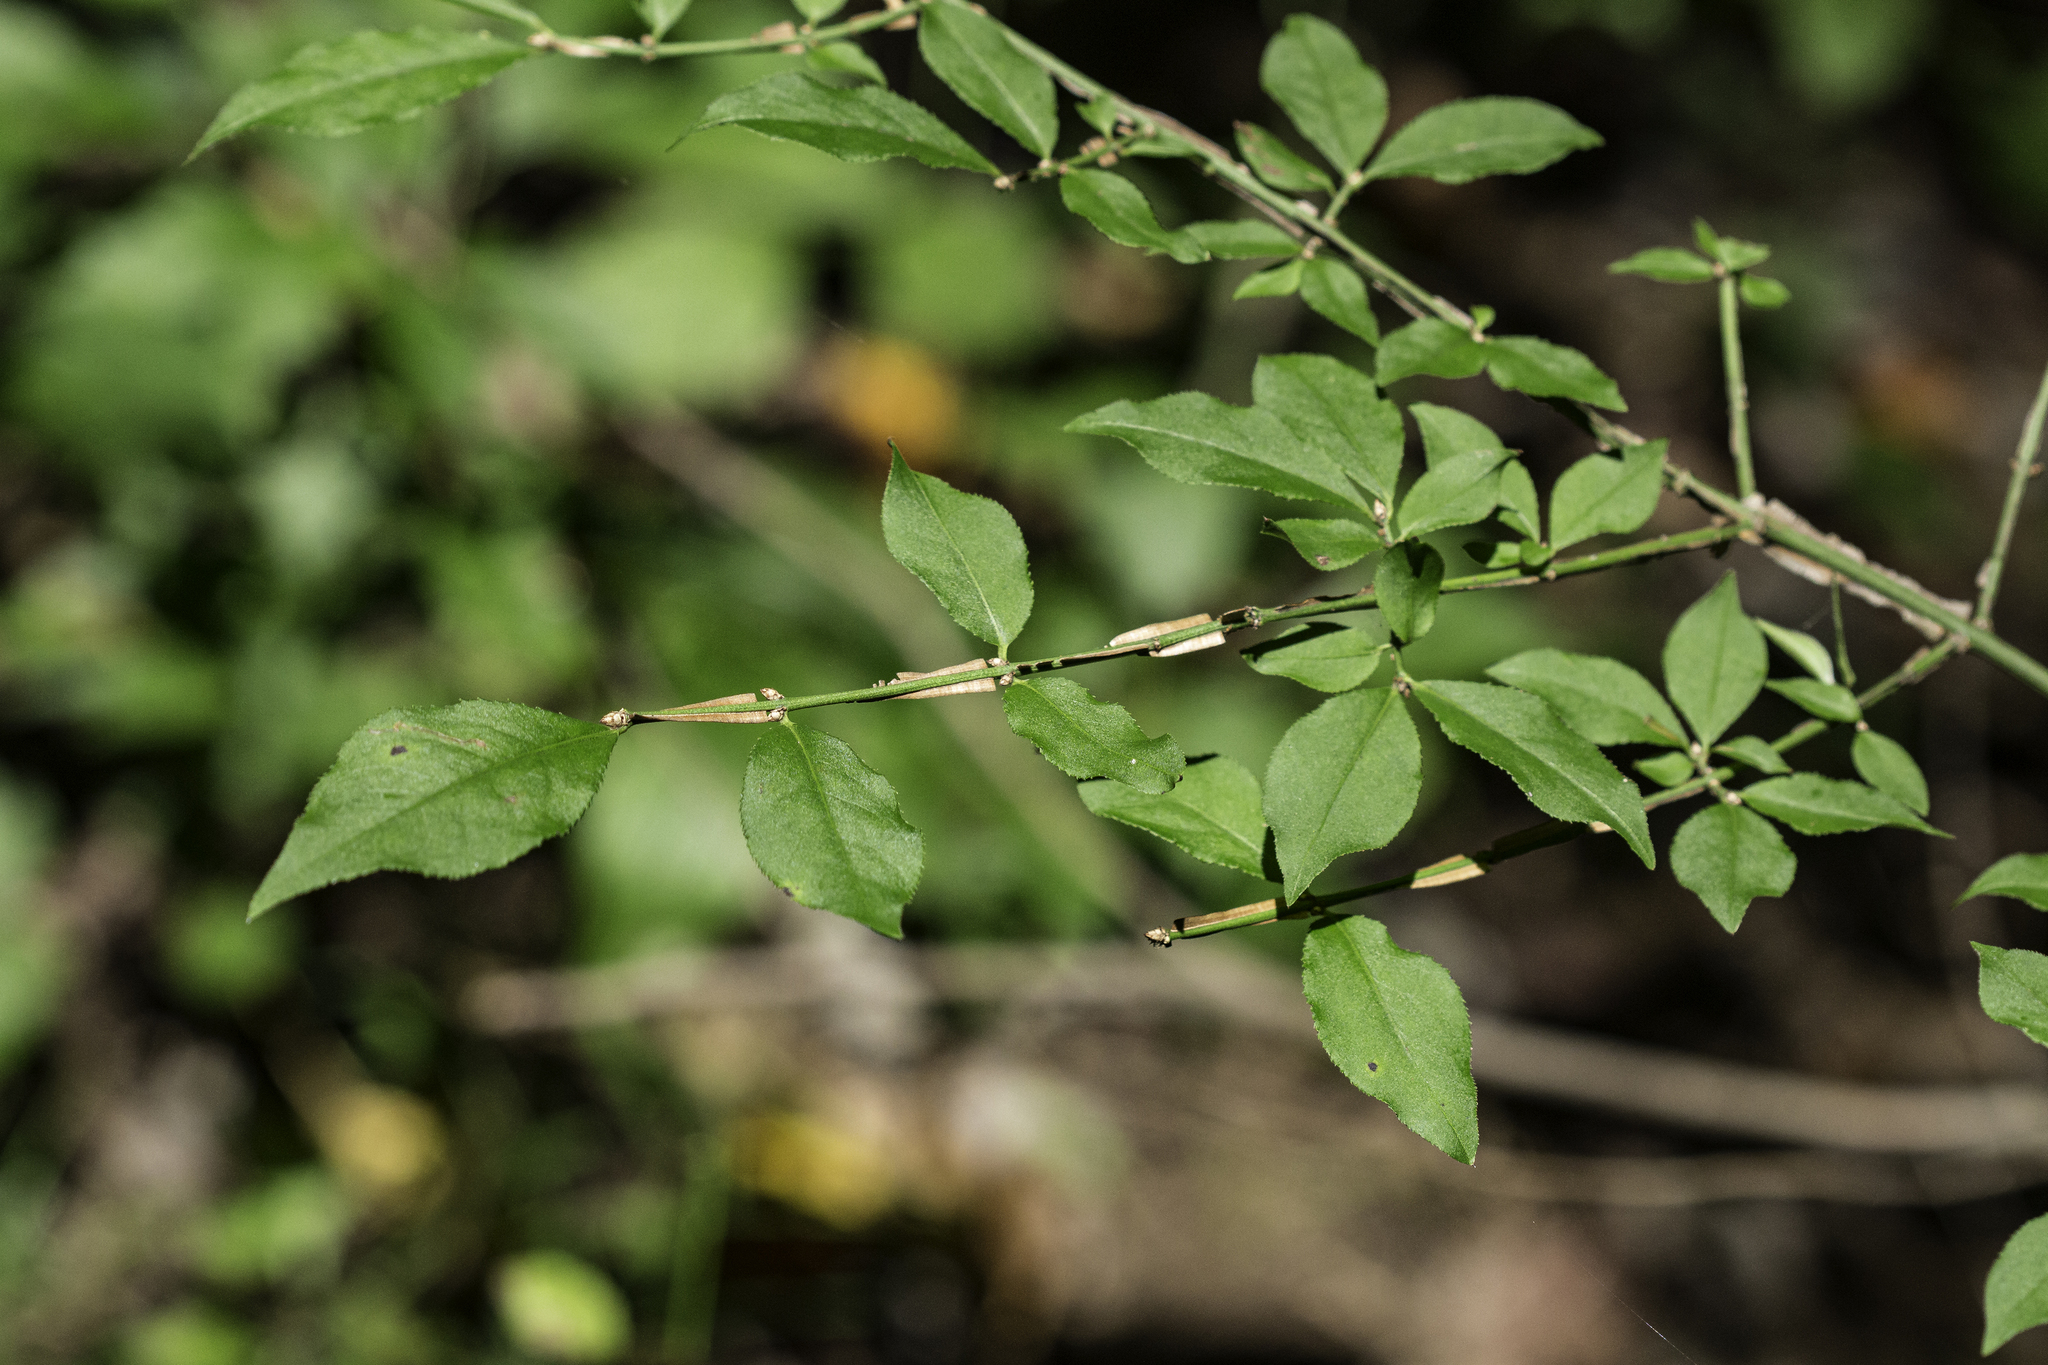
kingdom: Plantae
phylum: Tracheophyta
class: Magnoliopsida
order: Celastrales
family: Celastraceae
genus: Euonymus
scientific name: Euonymus alatus
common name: Winged euonymus
